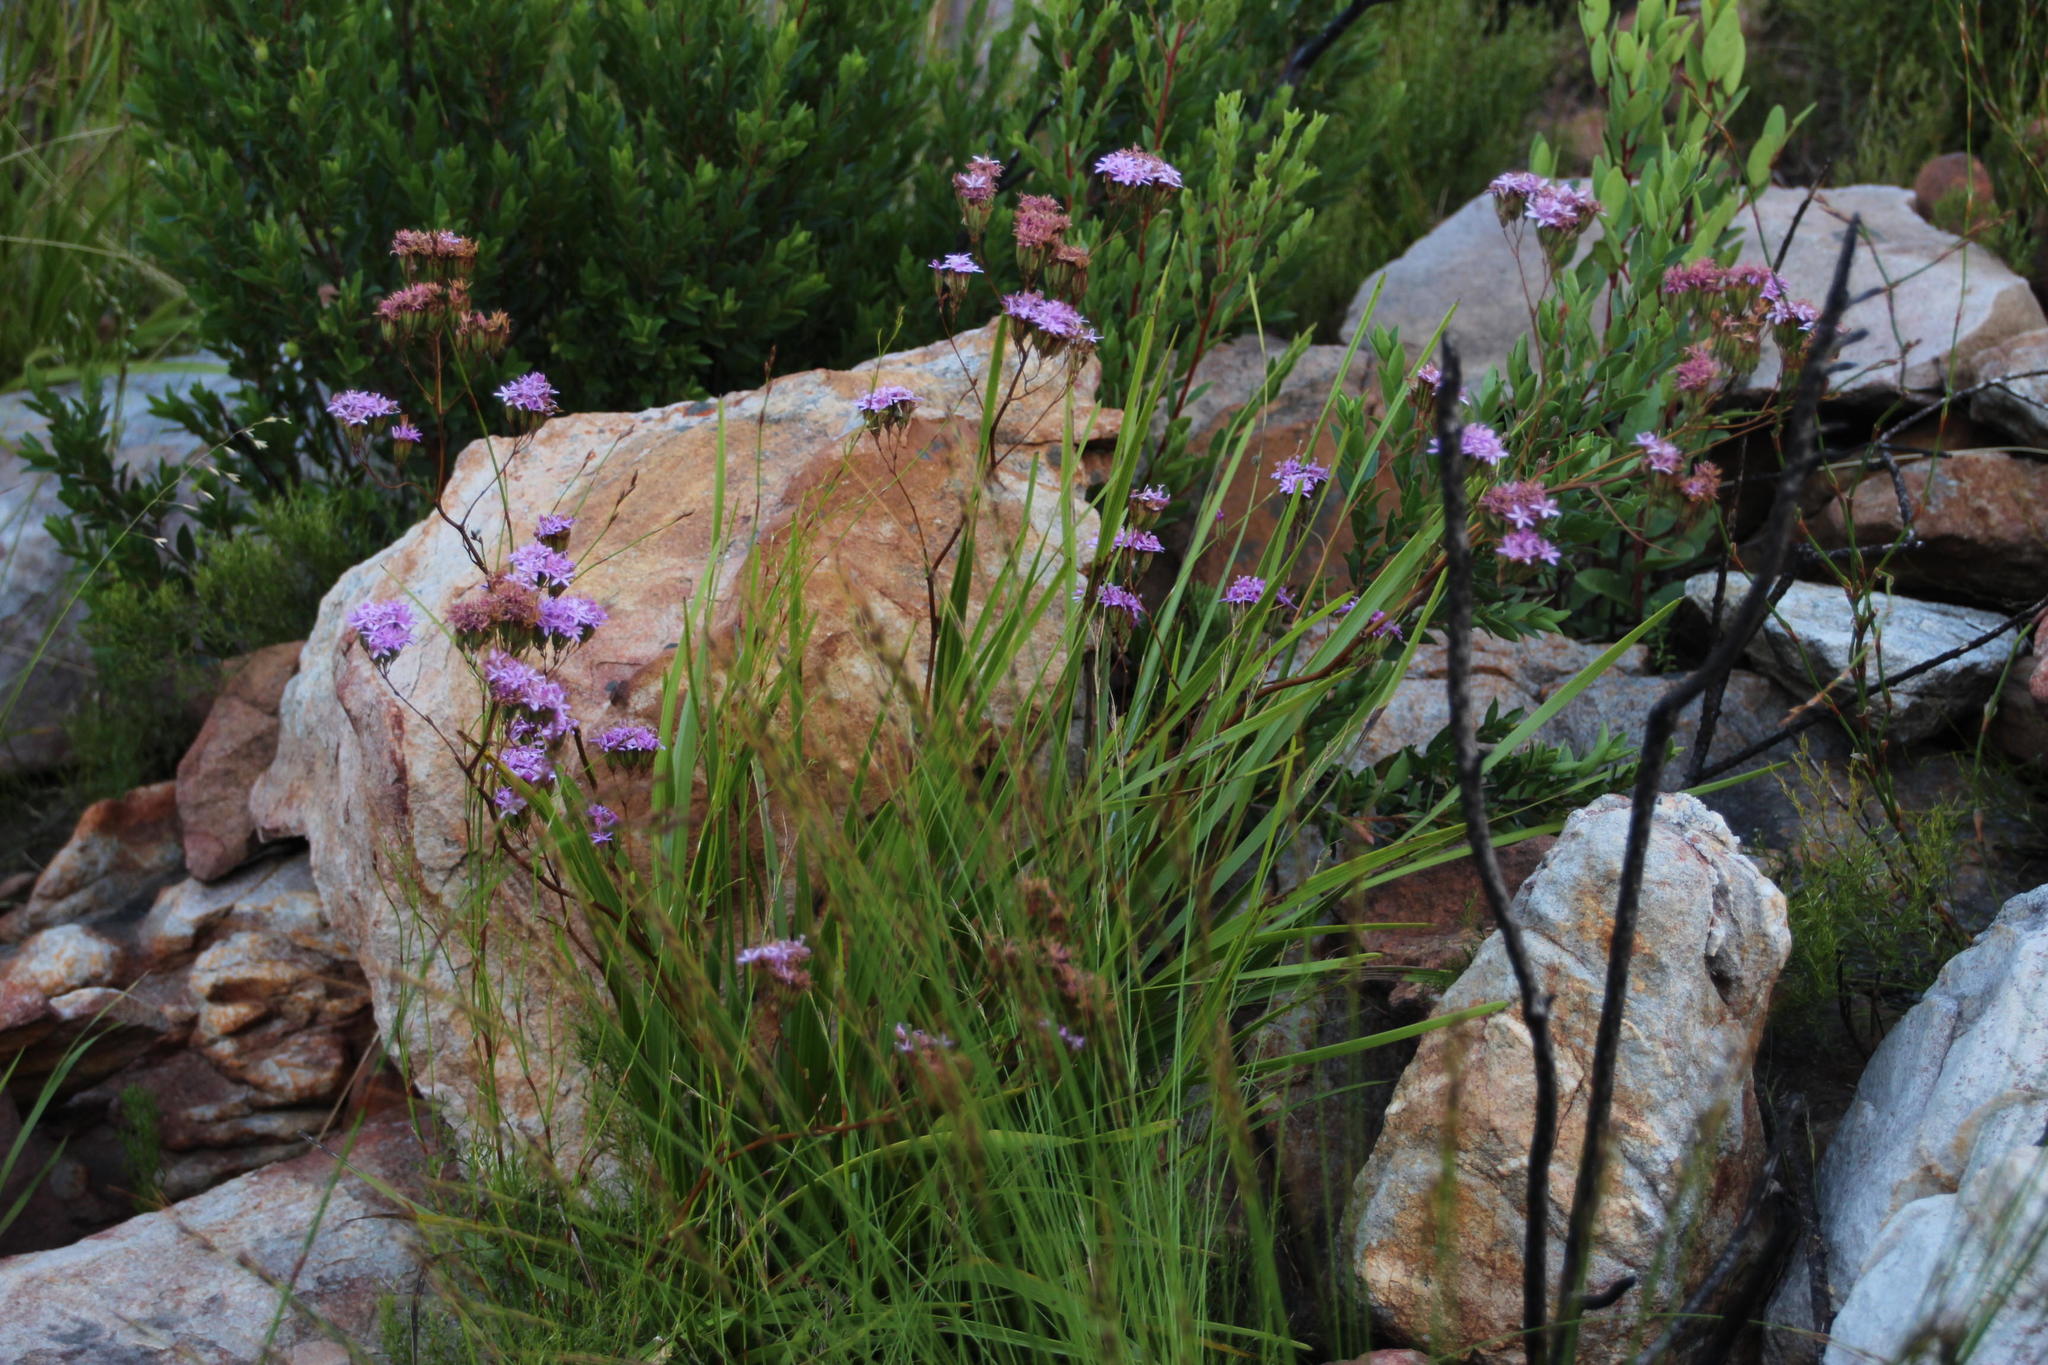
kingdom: Plantae
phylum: Tracheophyta
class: Magnoliopsida
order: Asterales
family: Asteraceae
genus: Corymbium
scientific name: Corymbium glabrum
